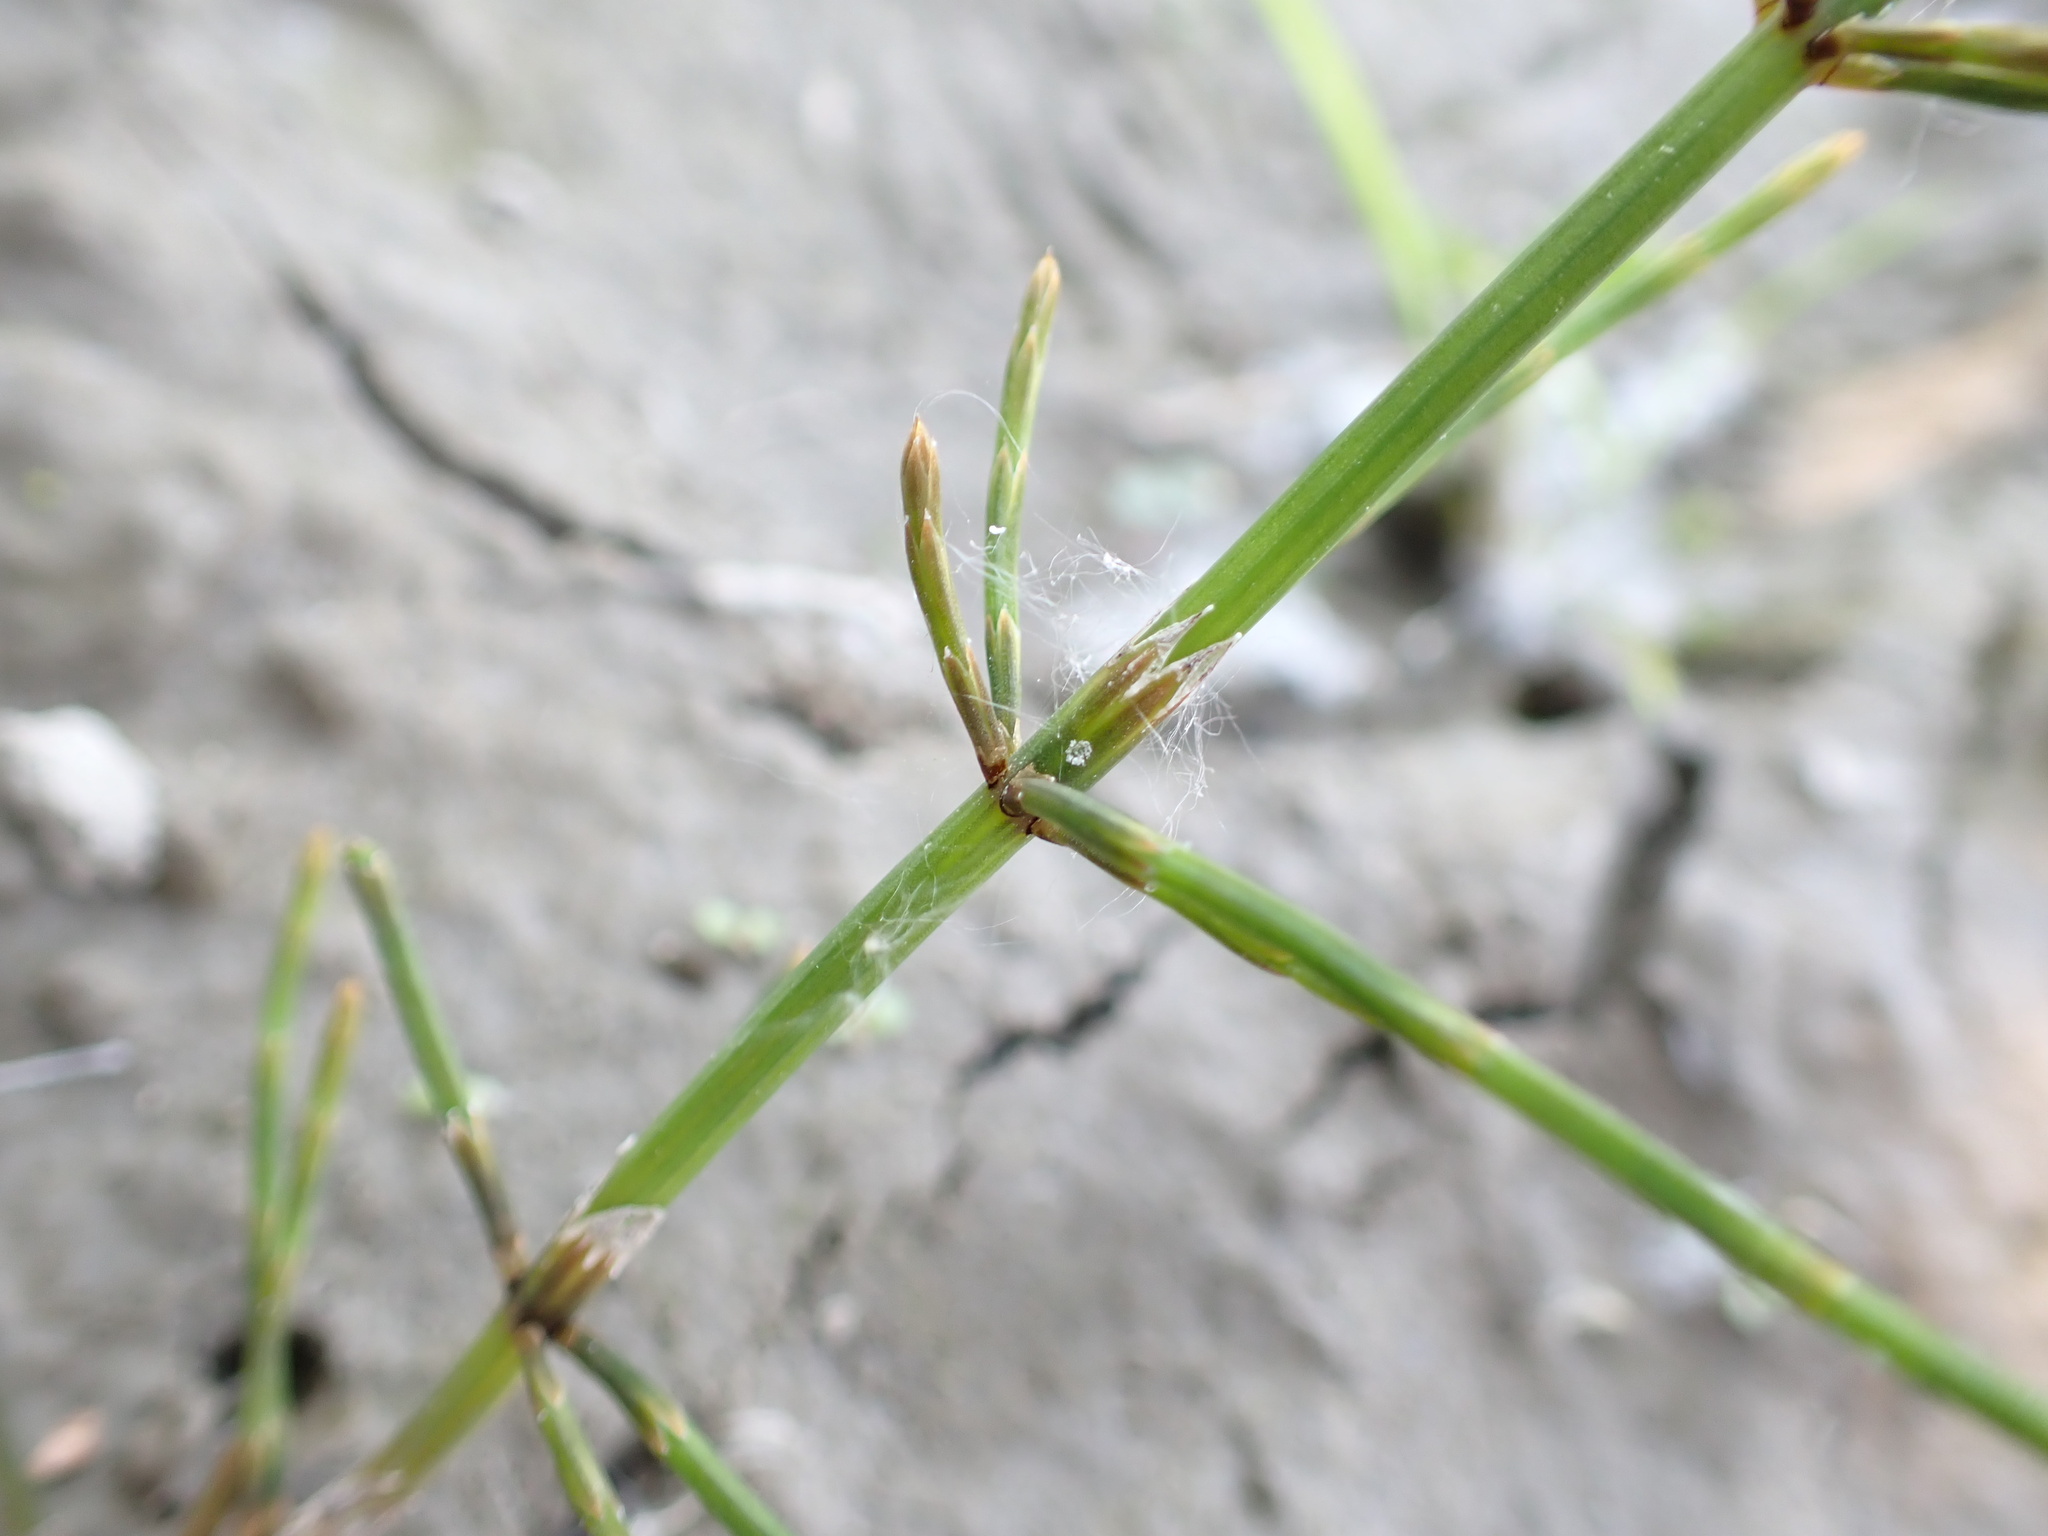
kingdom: Plantae
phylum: Tracheophyta
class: Polypodiopsida
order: Equisetales
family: Equisetaceae
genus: Equisetum
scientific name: Equisetum palustre
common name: Marsh horsetail
